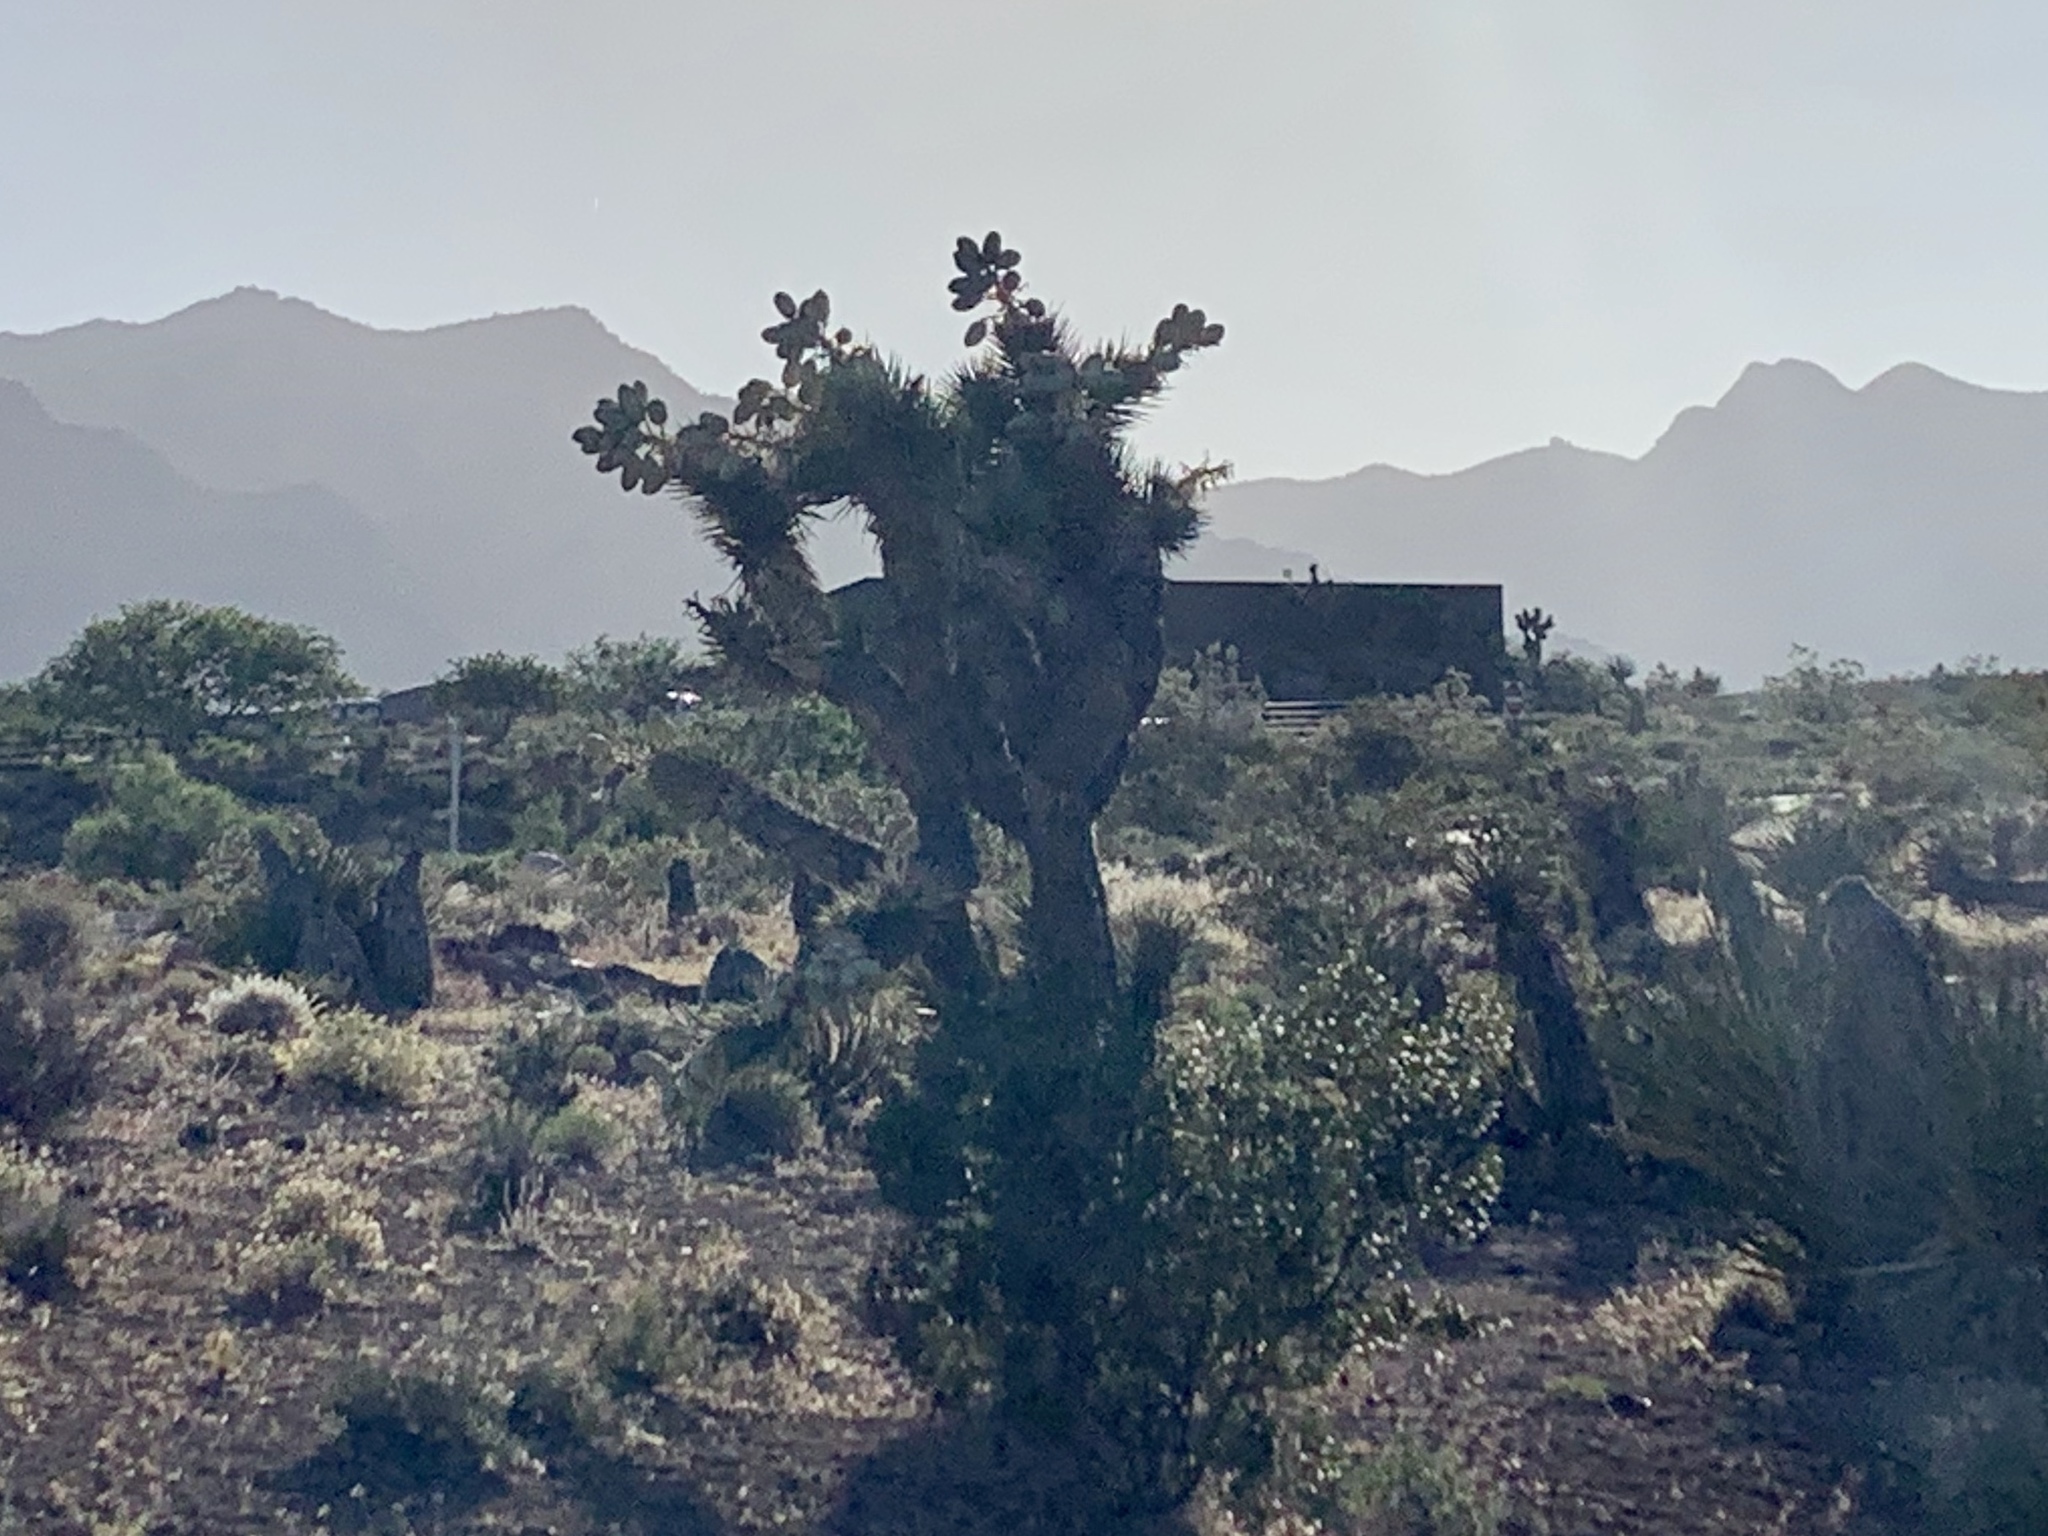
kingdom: Plantae
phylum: Tracheophyta
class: Liliopsida
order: Asparagales
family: Asparagaceae
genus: Yucca
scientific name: Yucca brevifolia
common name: Joshua tree
